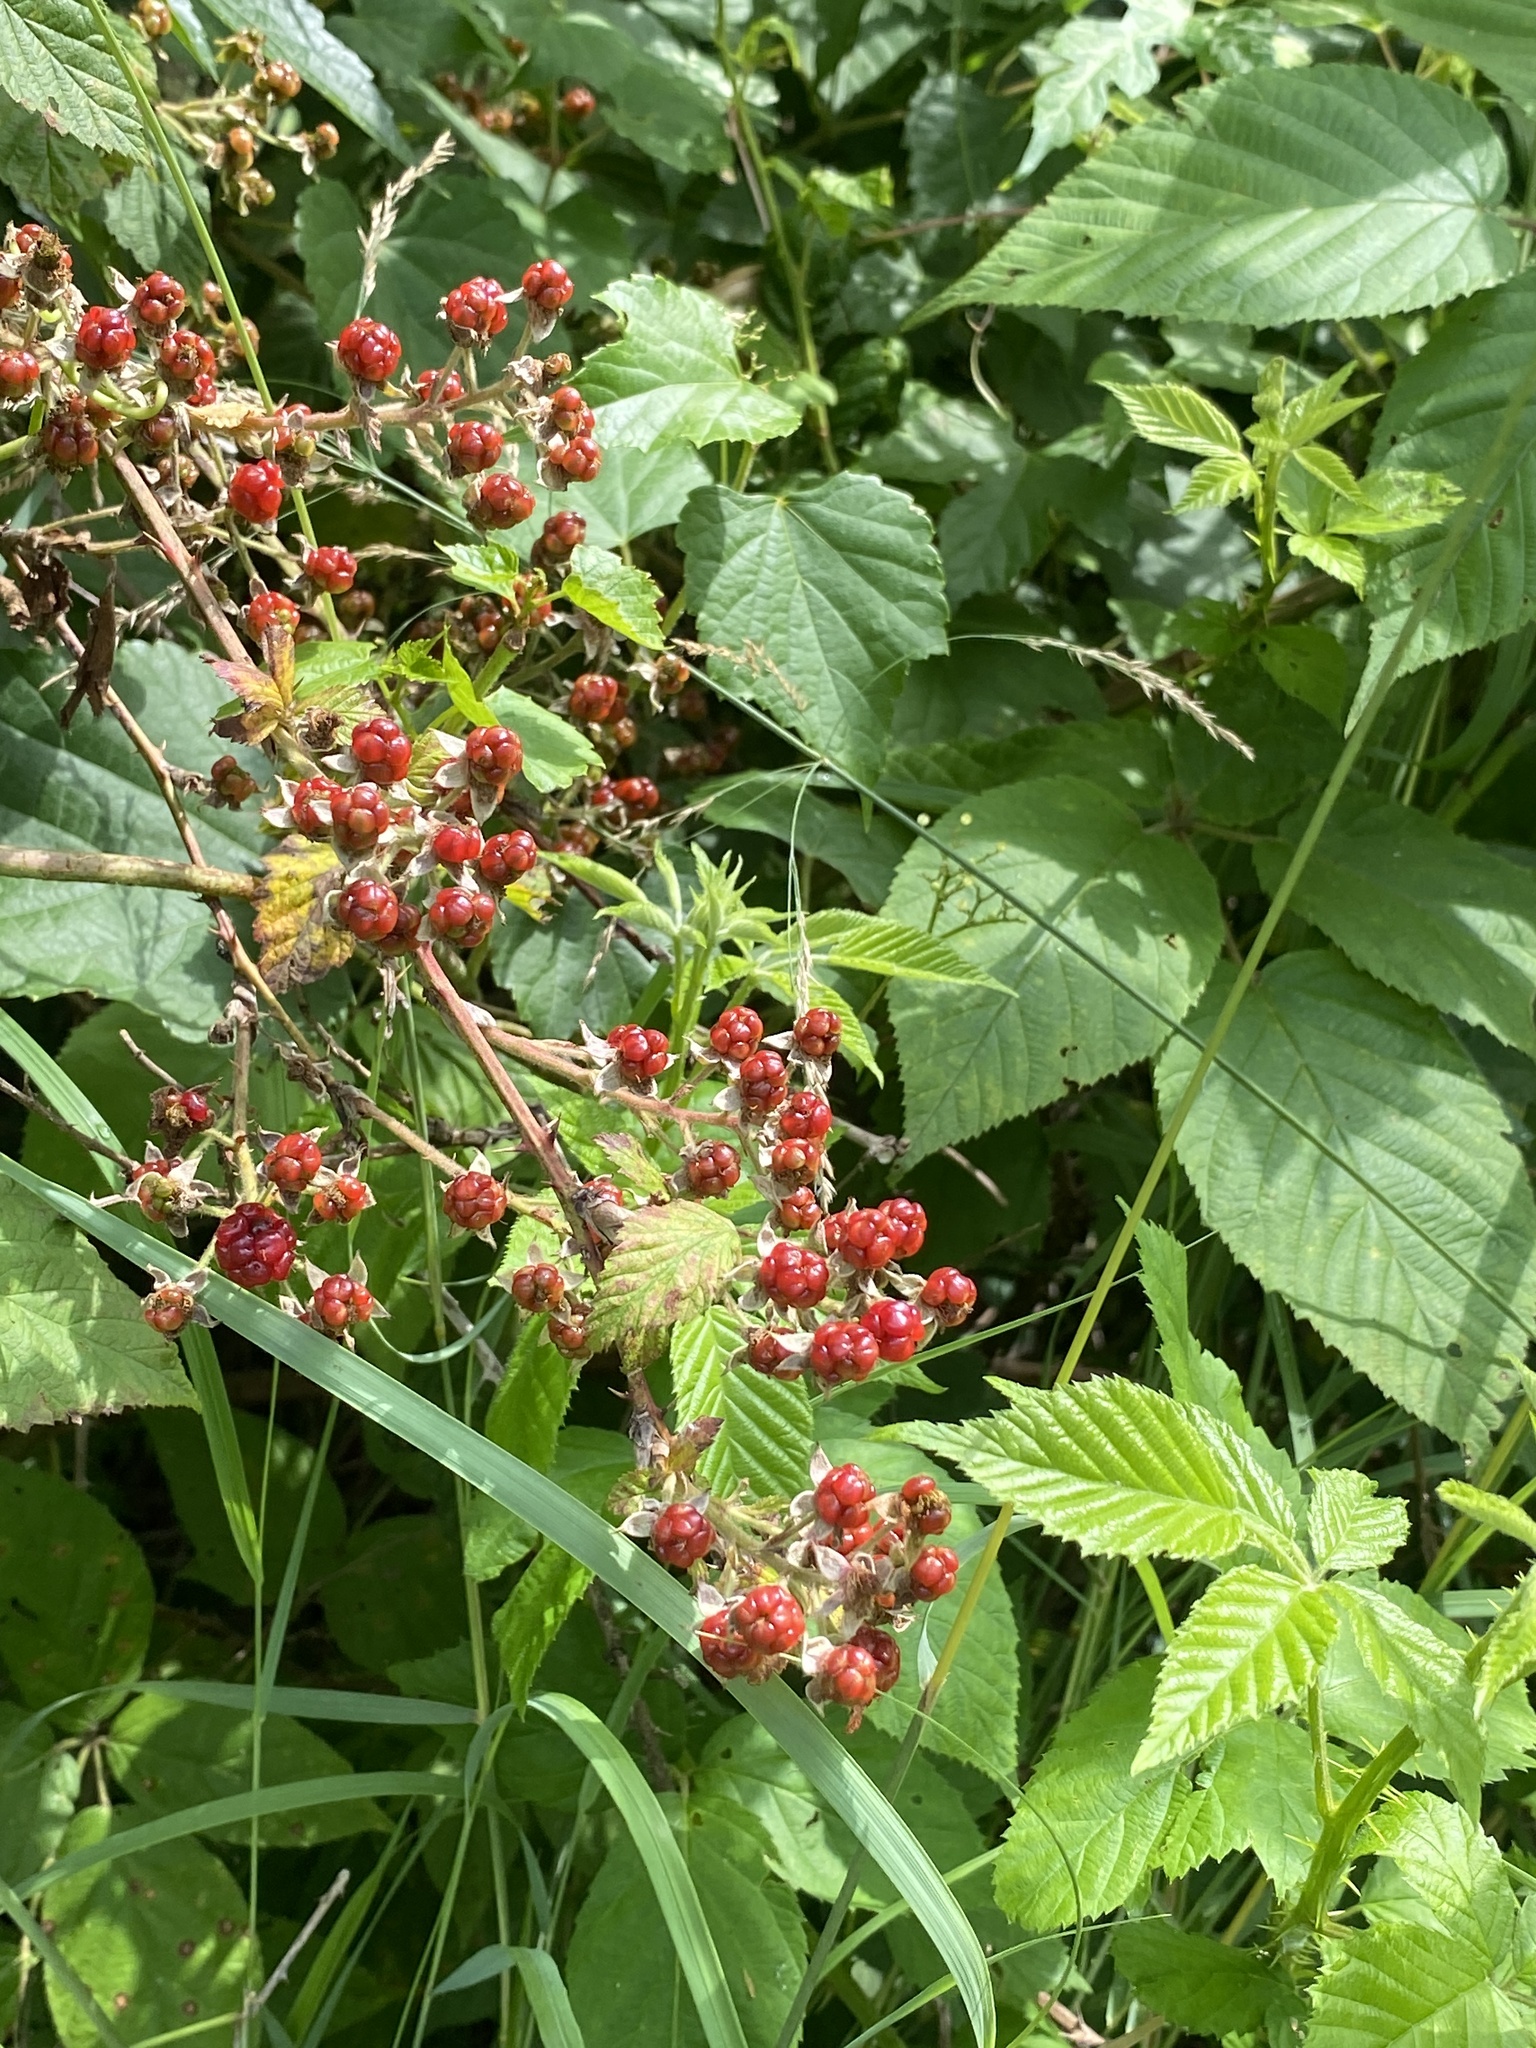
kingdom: Plantae
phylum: Tracheophyta
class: Magnoliopsida
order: Rosales
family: Rosaceae
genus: Rubus
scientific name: Rubus allegheniensis
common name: Allegheny blackberry
